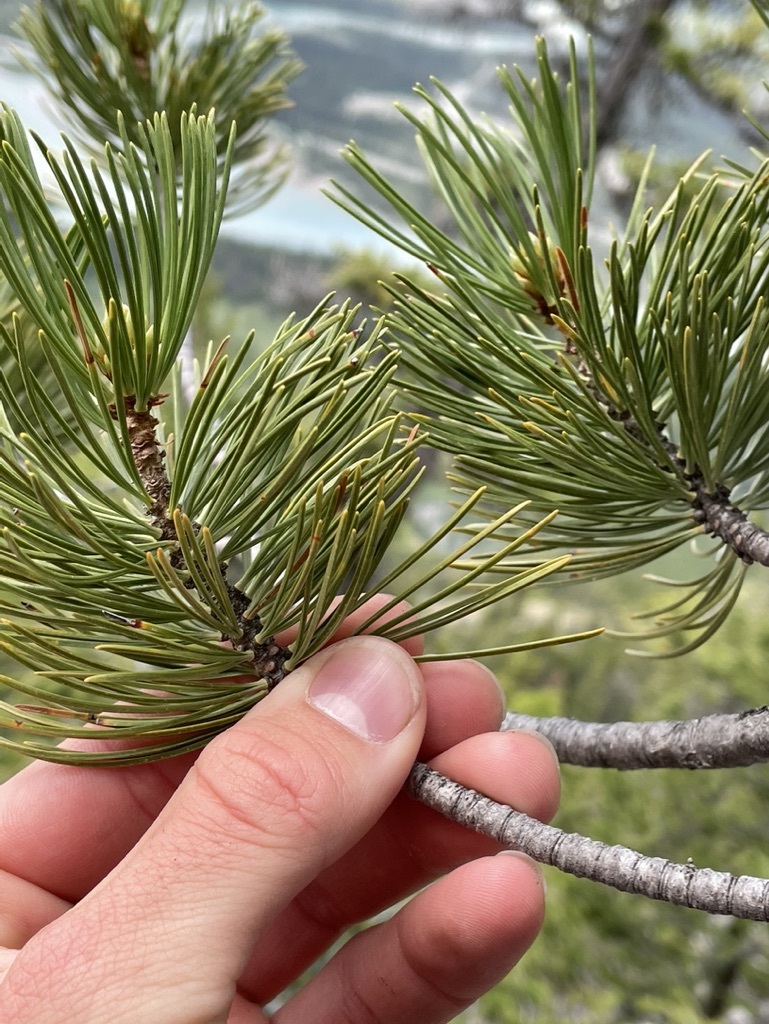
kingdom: Plantae
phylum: Tracheophyta
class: Pinopsida
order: Pinales
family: Pinaceae
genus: Pinus
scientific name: Pinus albicaulis
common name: Whitebark pine
